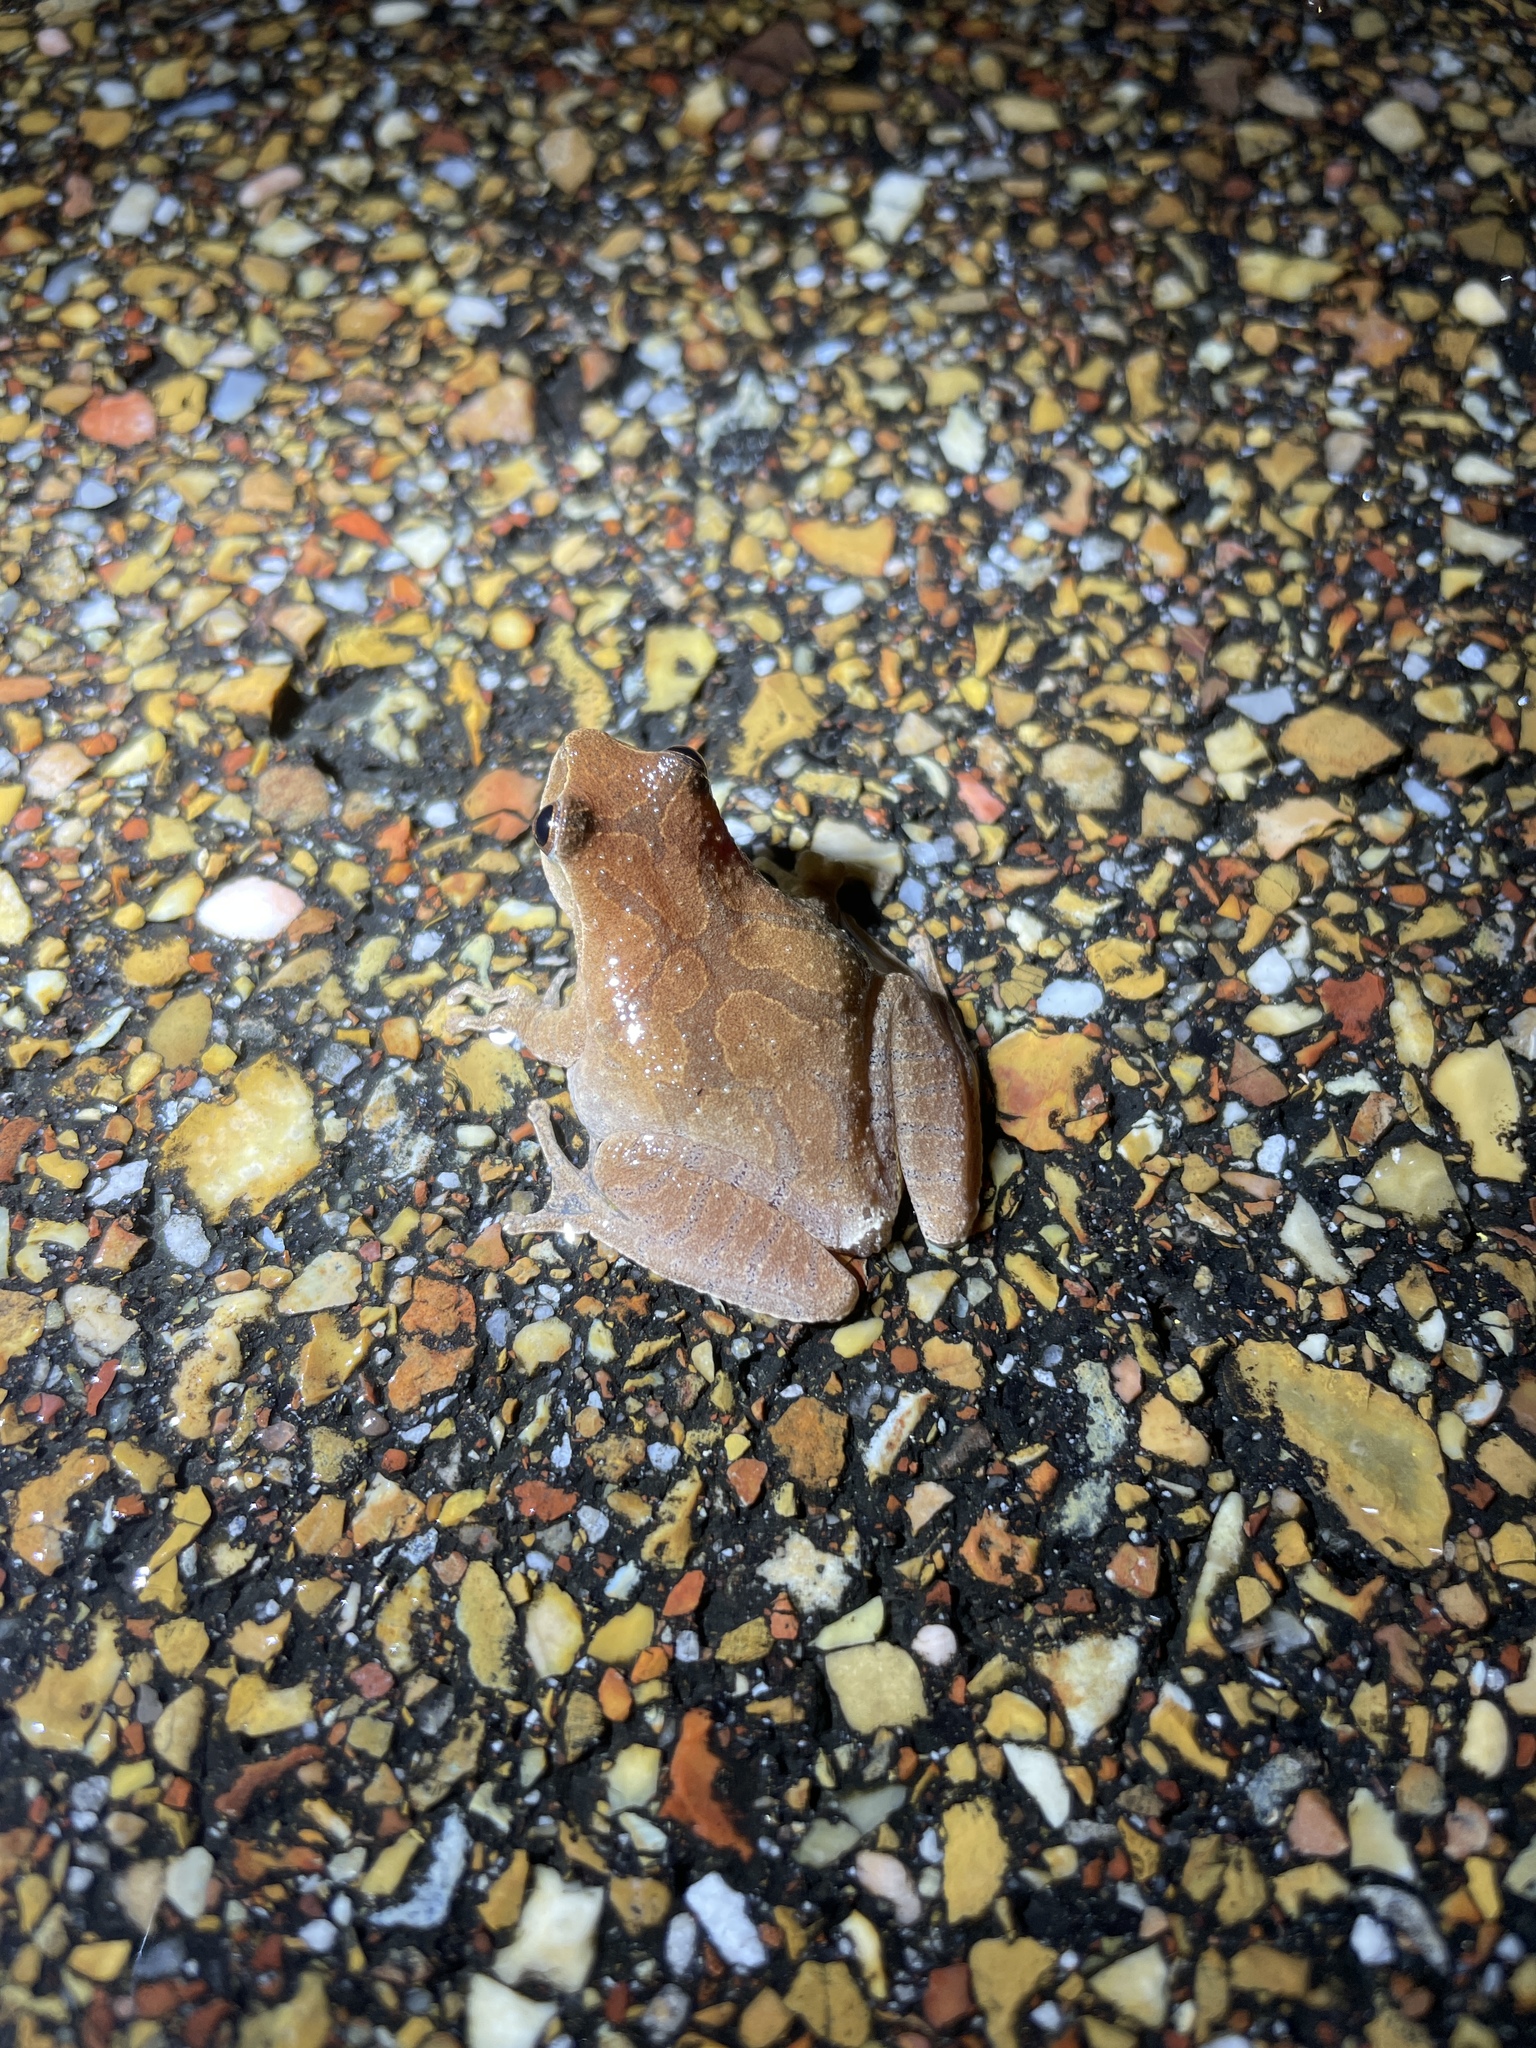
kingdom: Animalia
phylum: Chordata
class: Amphibia
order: Anura
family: Hylidae
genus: Pseudacris
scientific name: Pseudacris crucifer
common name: Spring peeper
